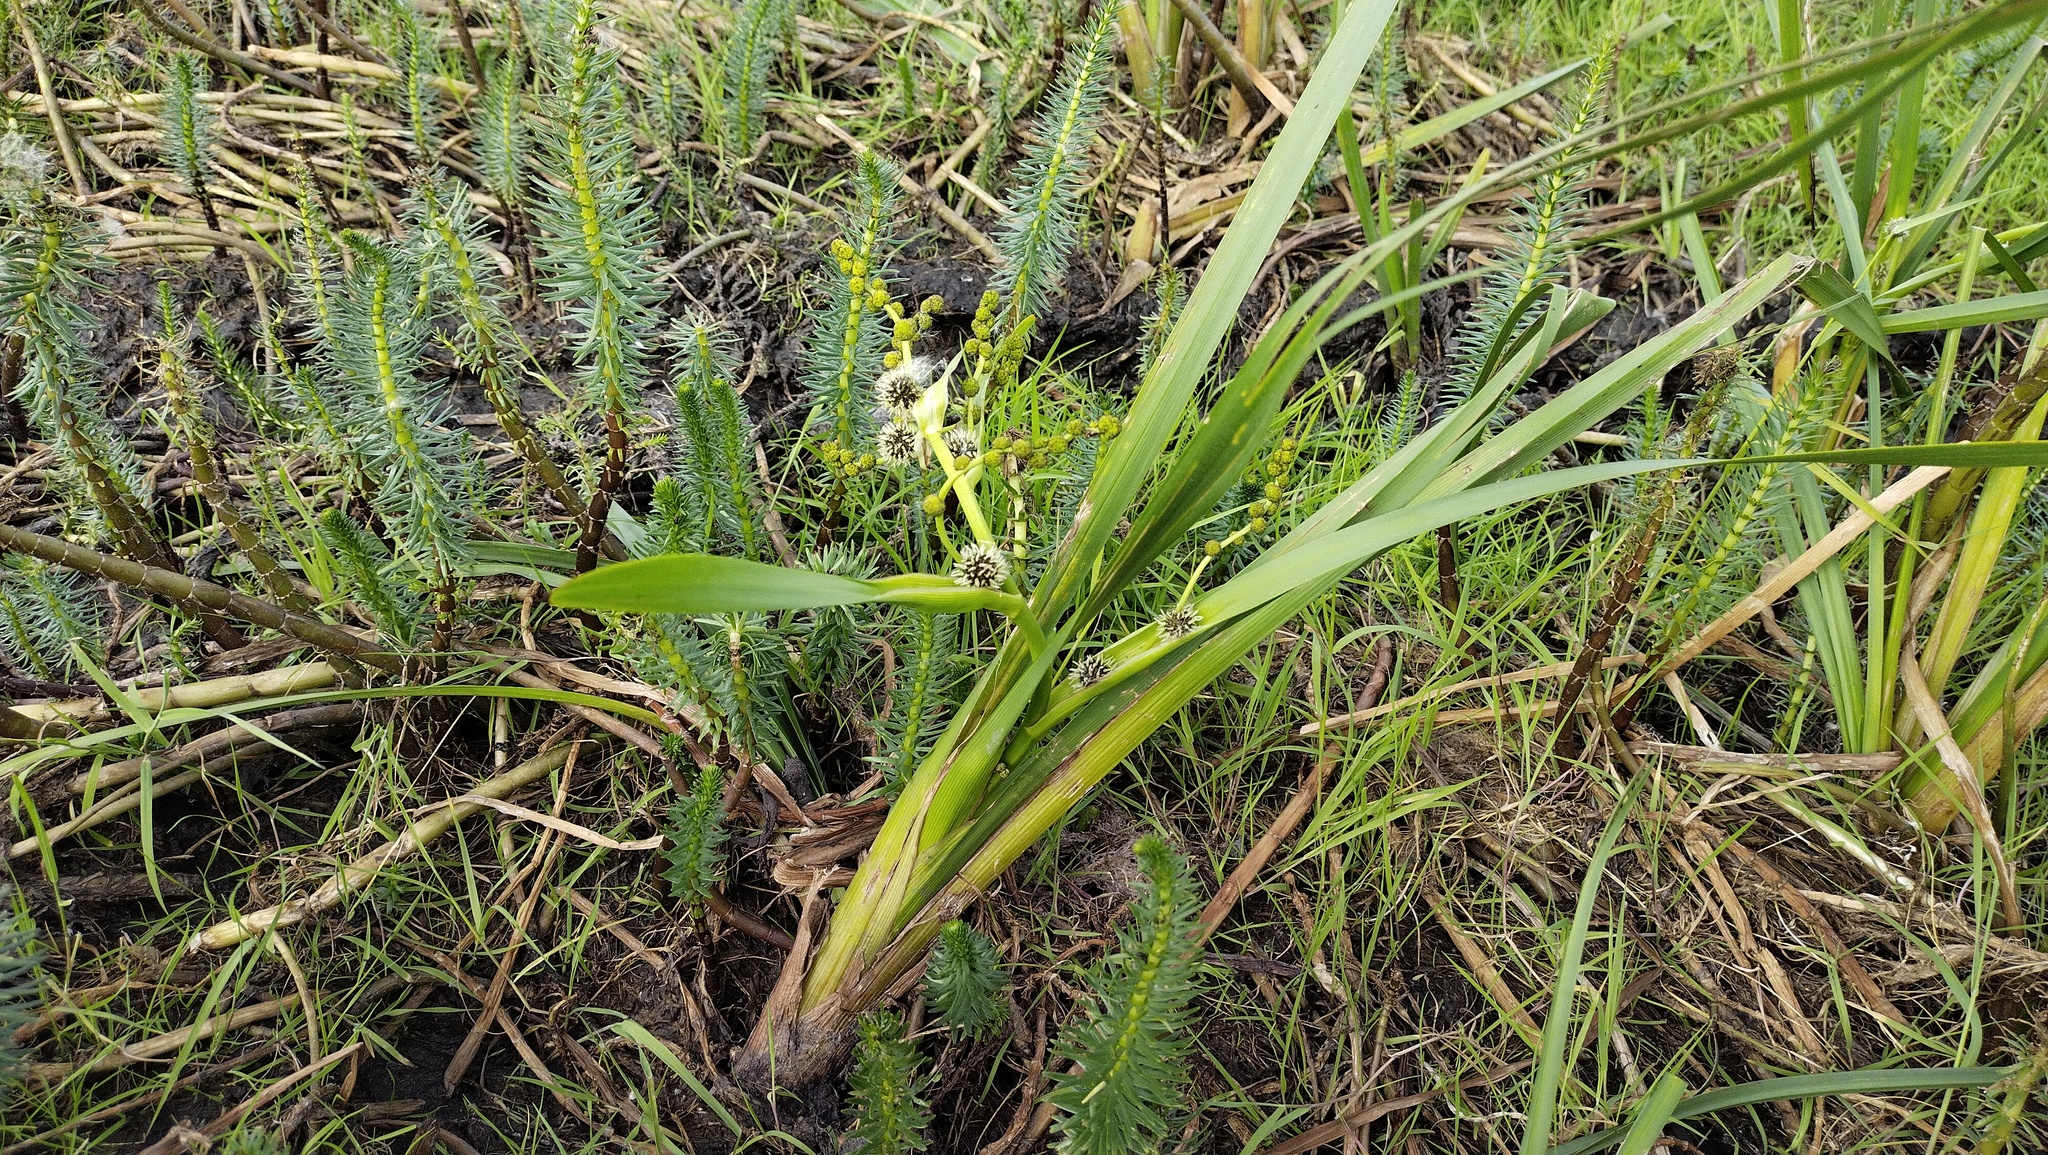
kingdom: Plantae
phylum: Tracheophyta
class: Liliopsida
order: Poales
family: Typhaceae
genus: Sparganium
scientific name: Sparganium erectum
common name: Branched bur-reed
